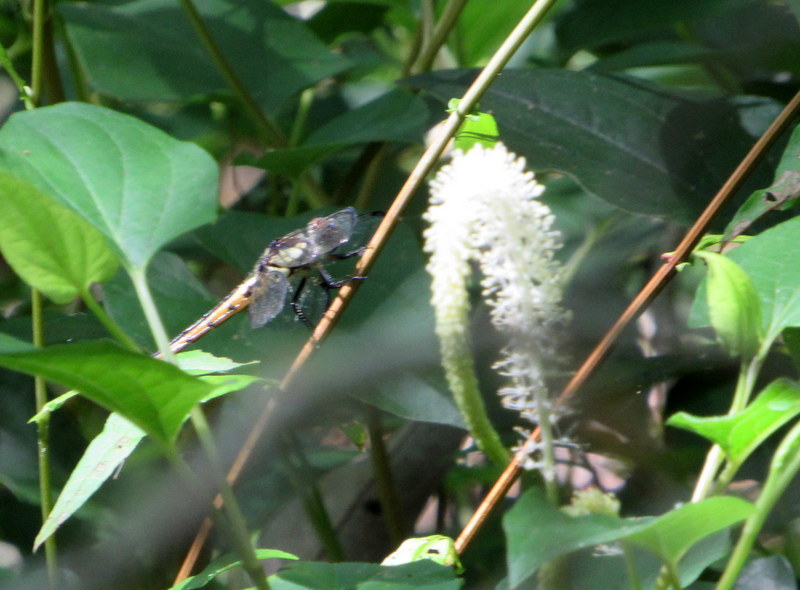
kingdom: Plantae
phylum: Tracheophyta
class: Magnoliopsida
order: Piperales
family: Saururaceae
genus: Saururus
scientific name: Saururus cernuus
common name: Lizard's-tail
